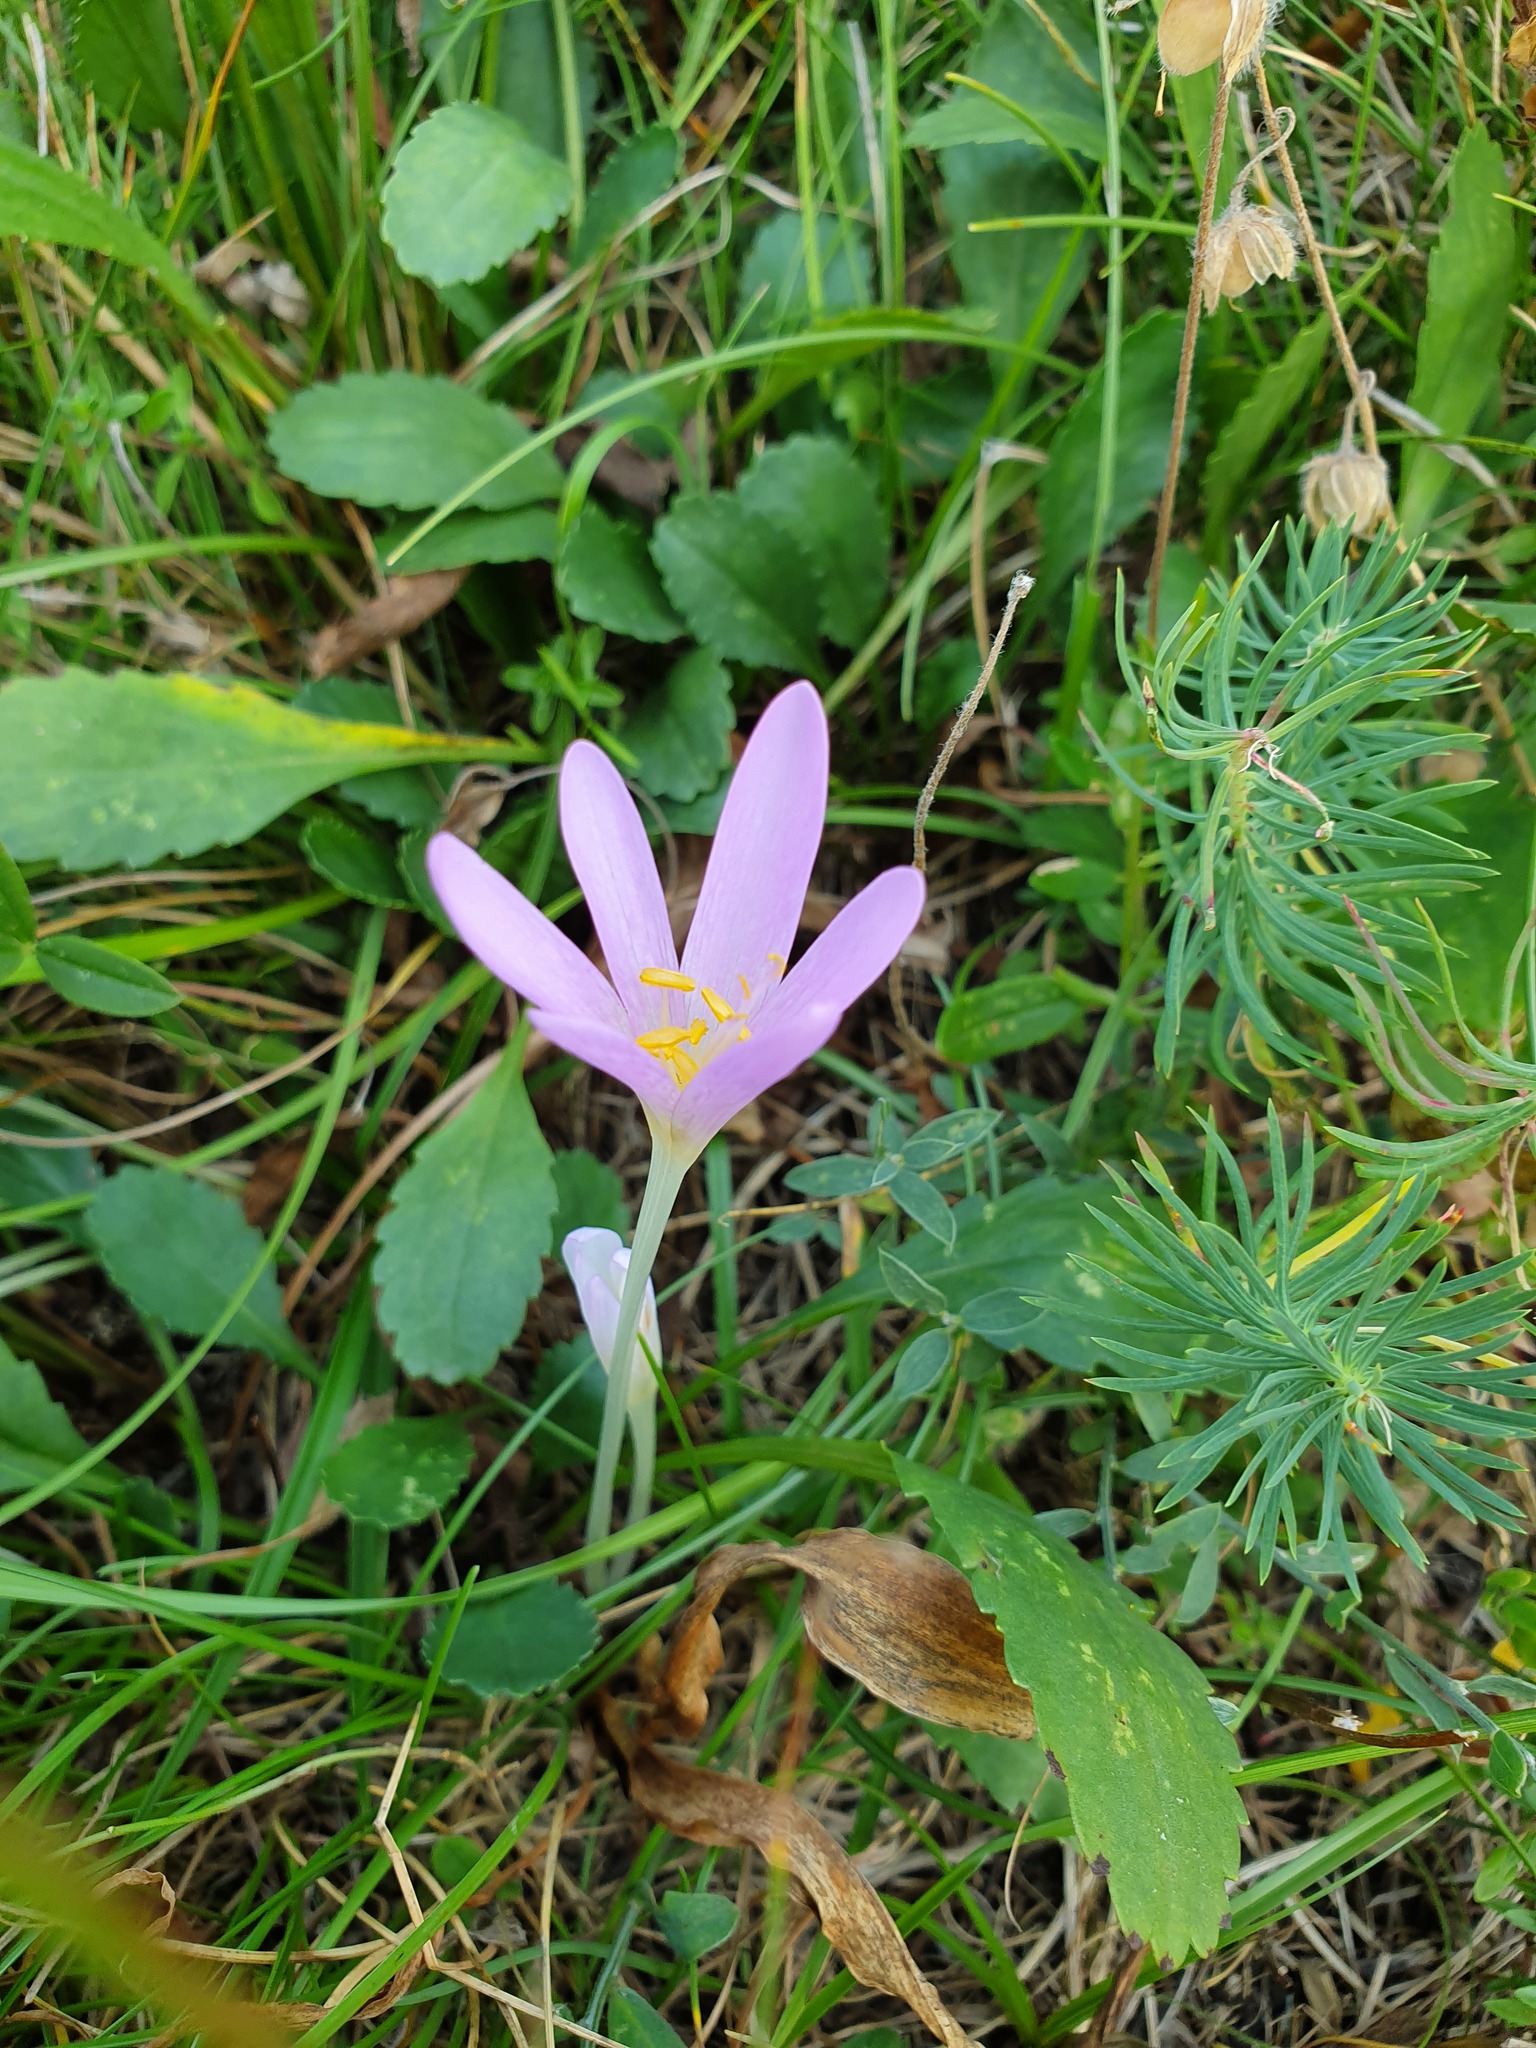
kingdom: Plantae
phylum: Tracheophyta
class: Liliopsida
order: Liliales
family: Colchicaceae
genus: Colchicum
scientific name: Colchicum autumnale
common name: Autumn crocus
